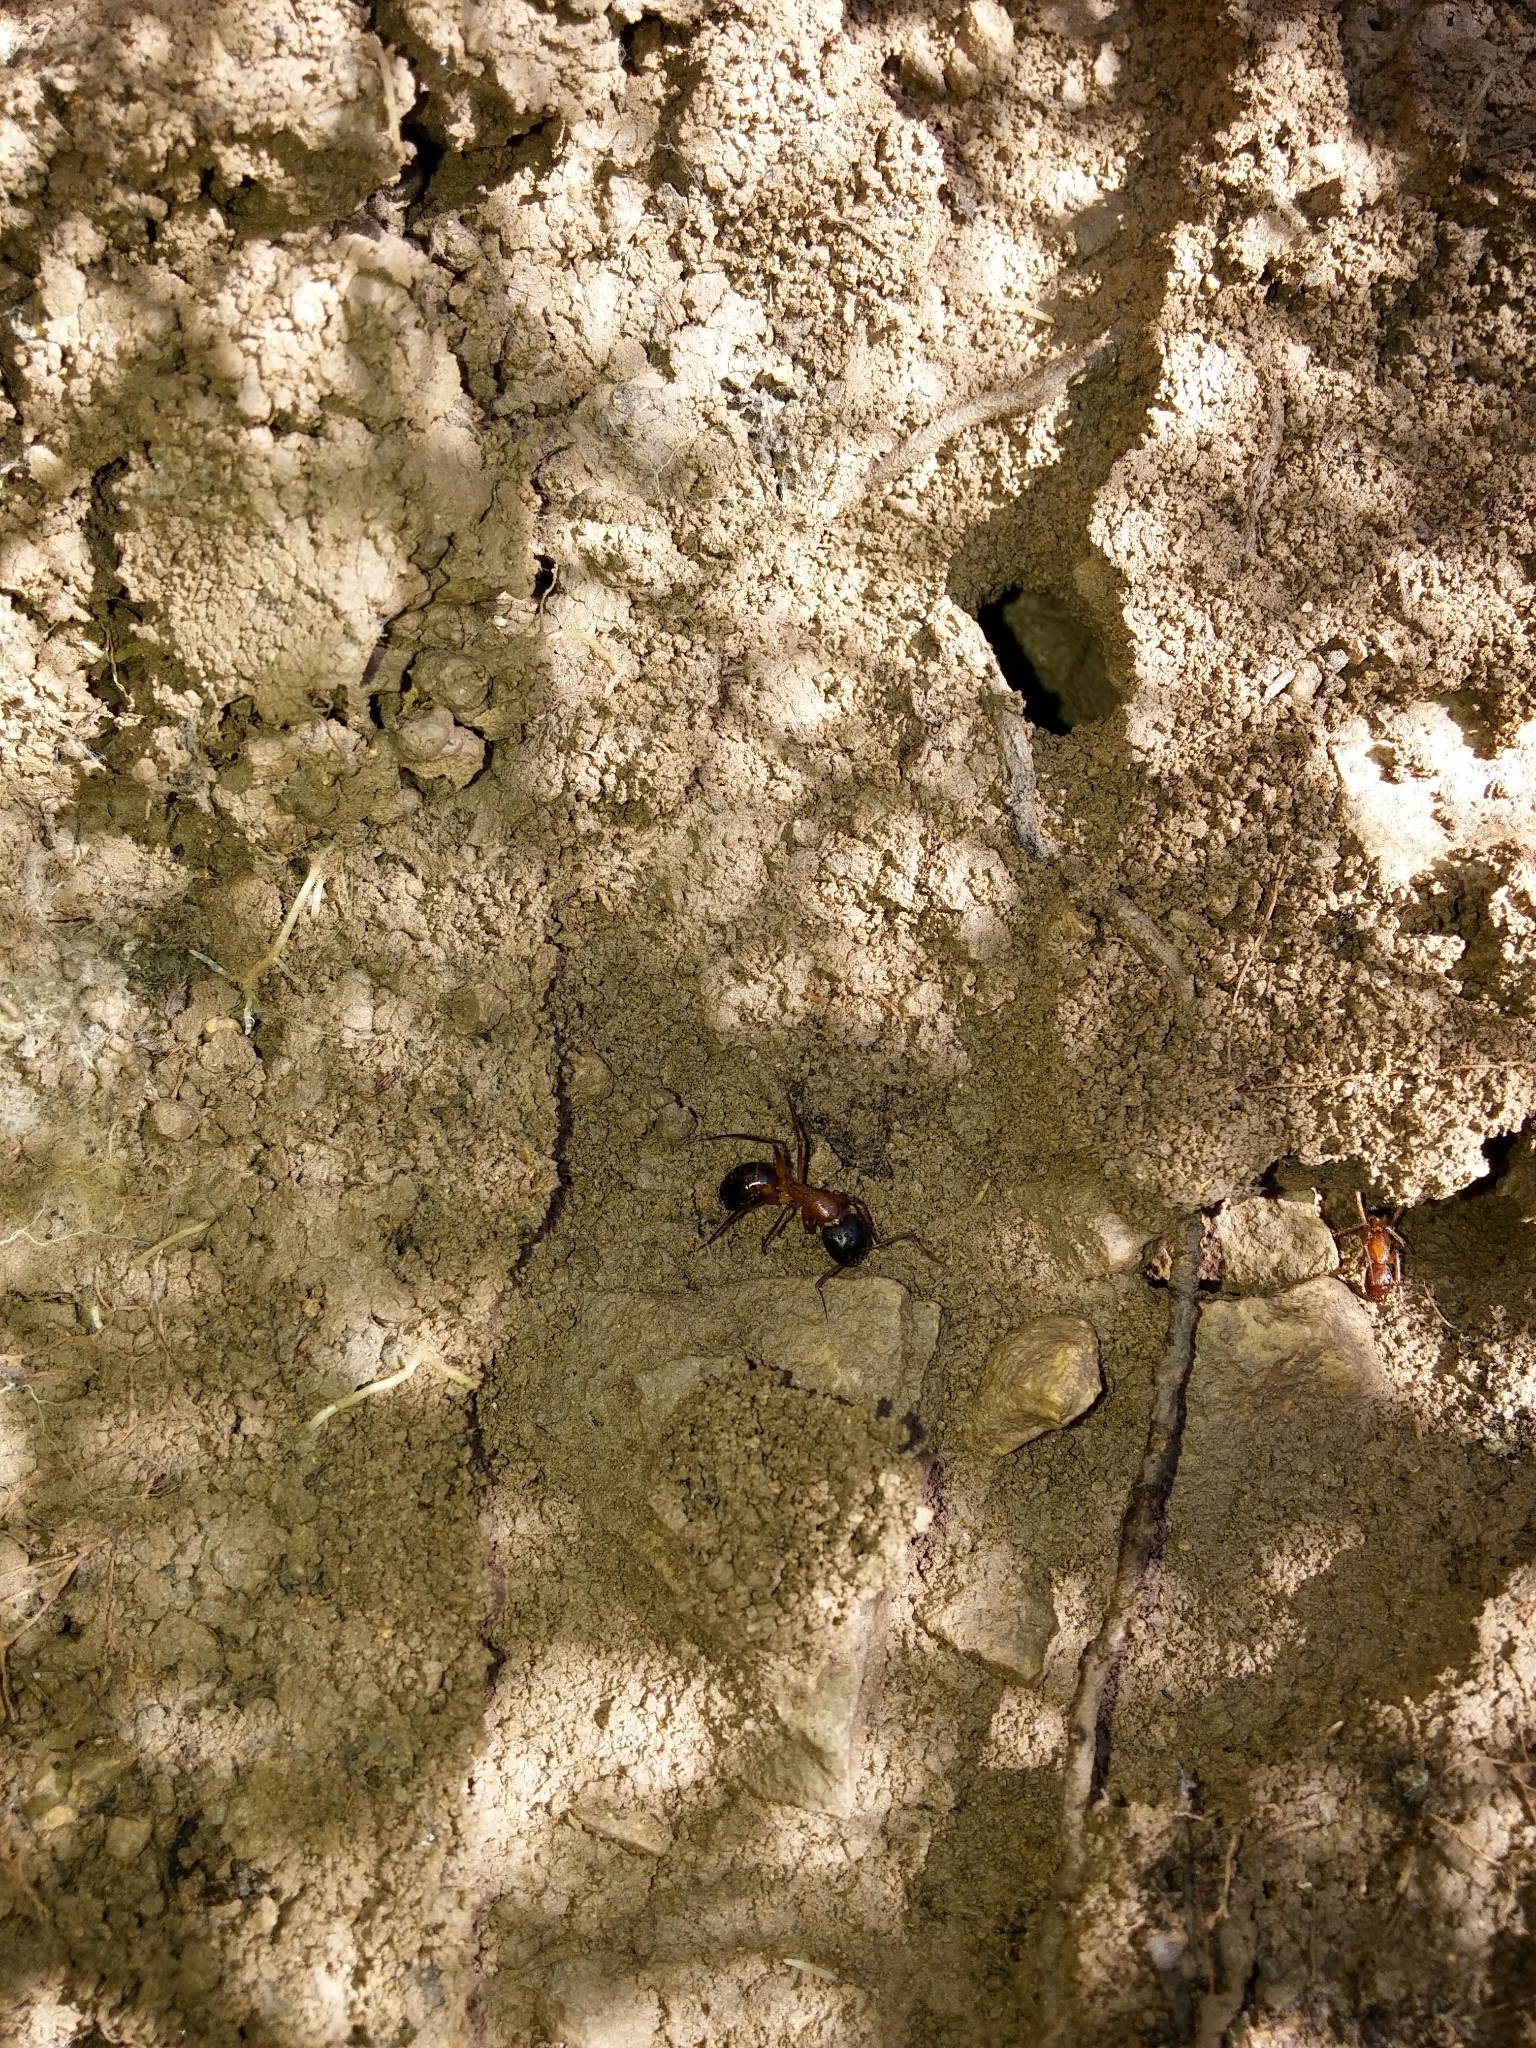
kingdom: Animalia
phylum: Arthropoda
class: Insecta
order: Hymenoptera
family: Formicidae
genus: Camponotus
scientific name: Camponotus pilicornis
